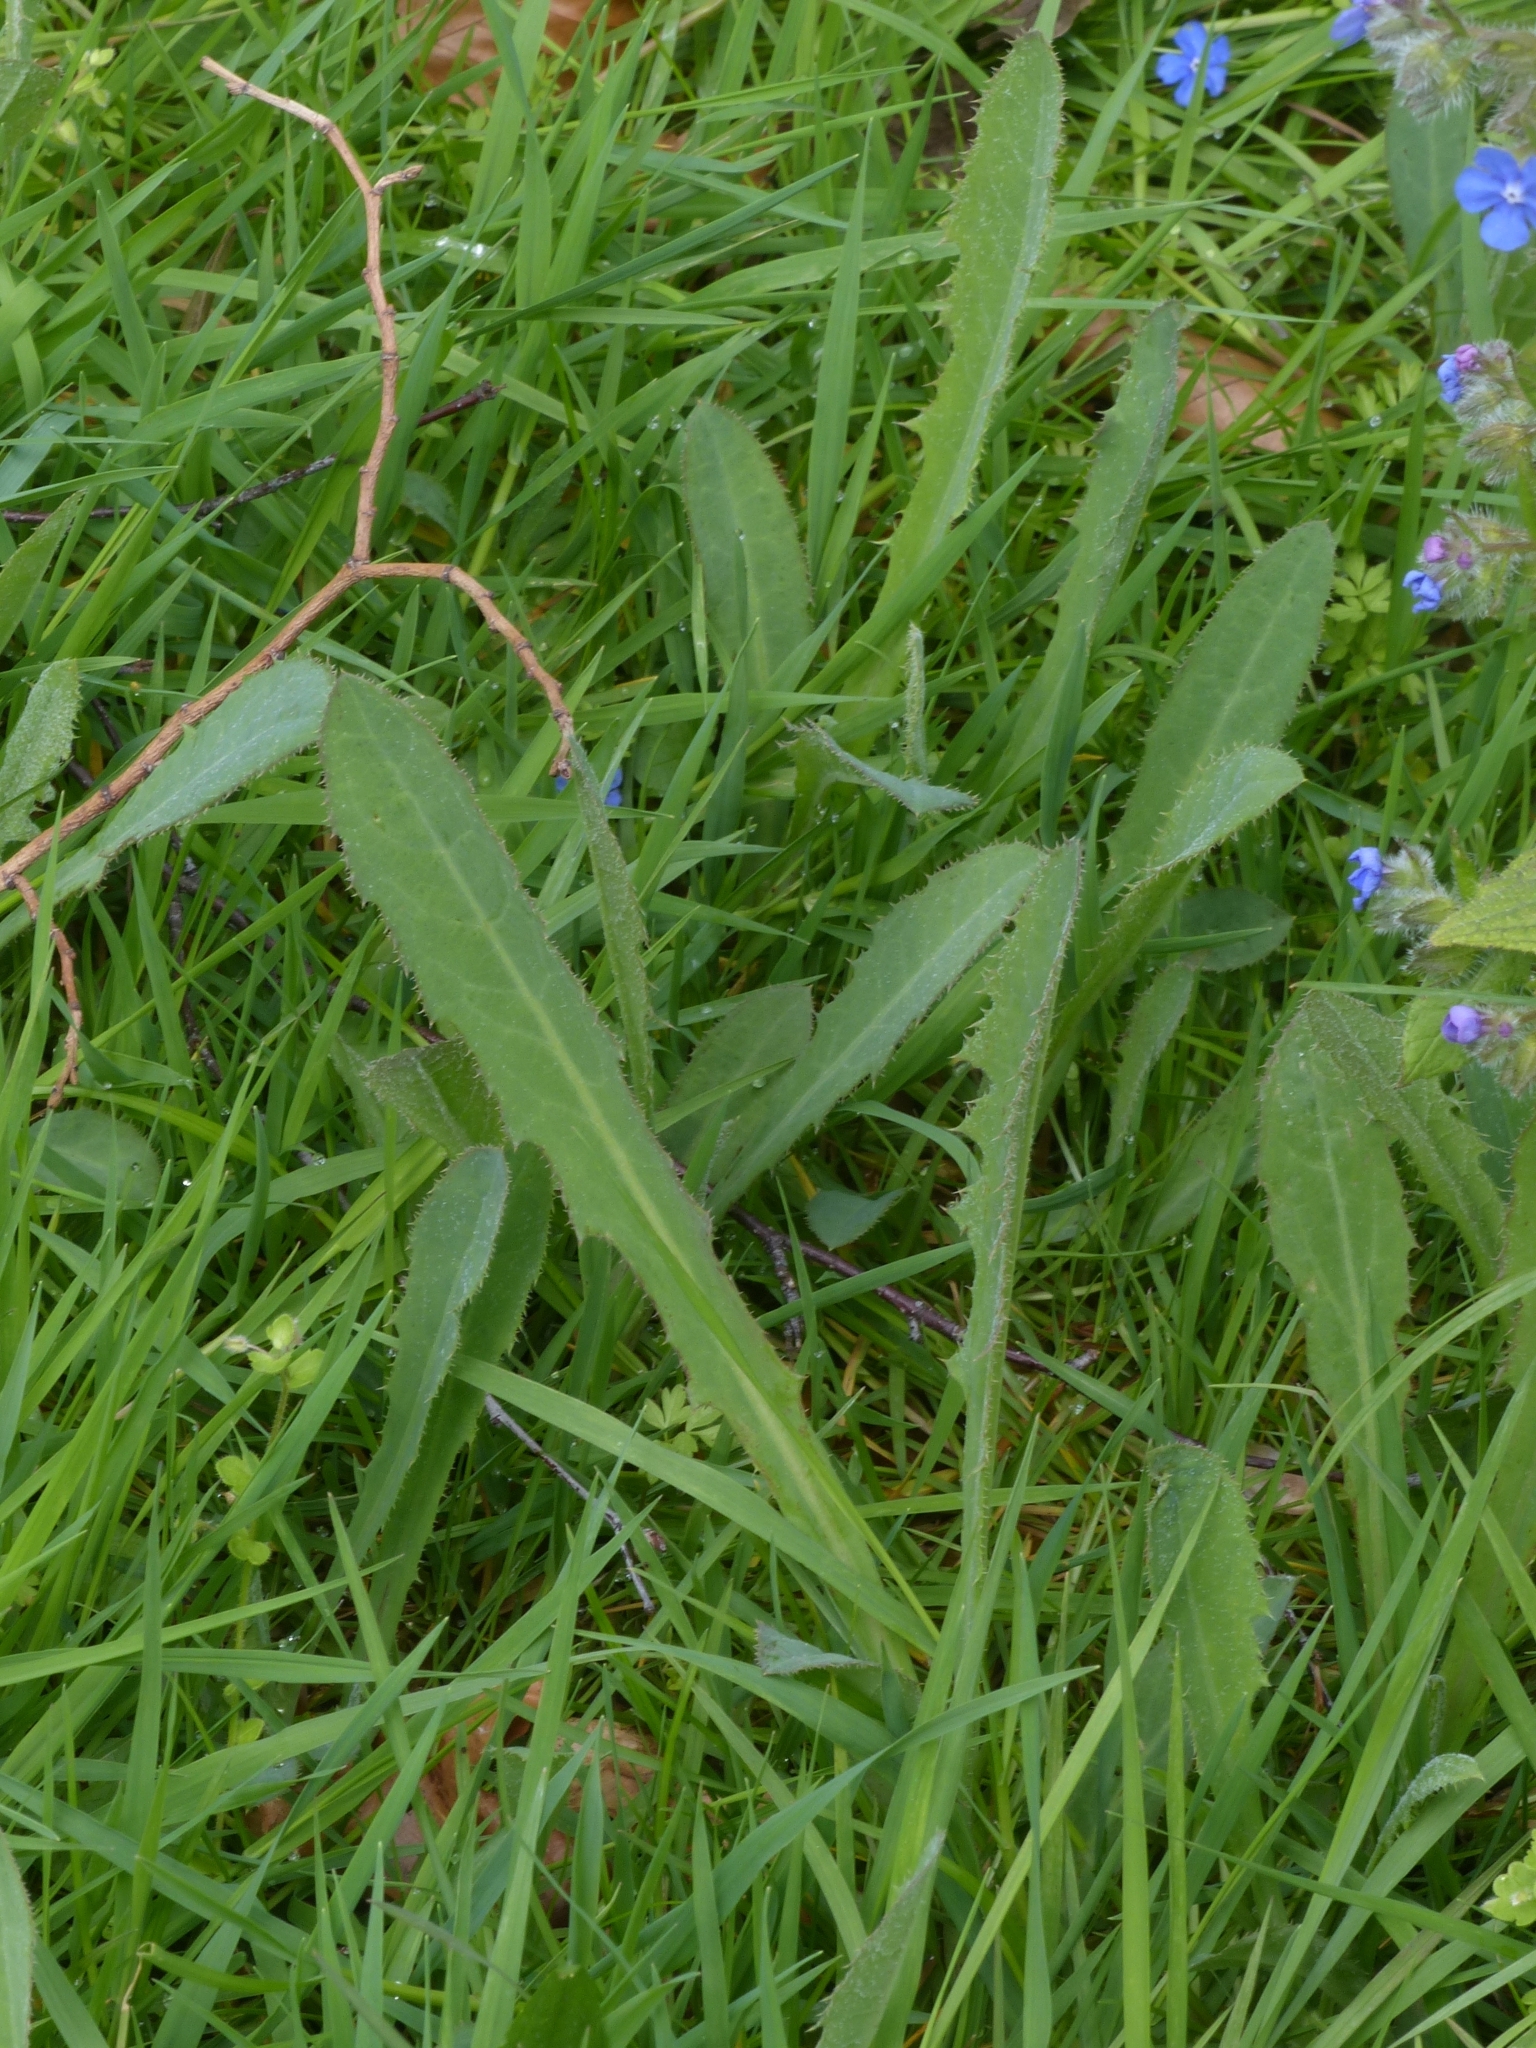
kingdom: Plantae
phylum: Tracheophyta
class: Magnoliopsida
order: Asterales
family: Asteraceae
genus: Sonchus
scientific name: Sonchus arvensis
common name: Perennial sow-thistle
